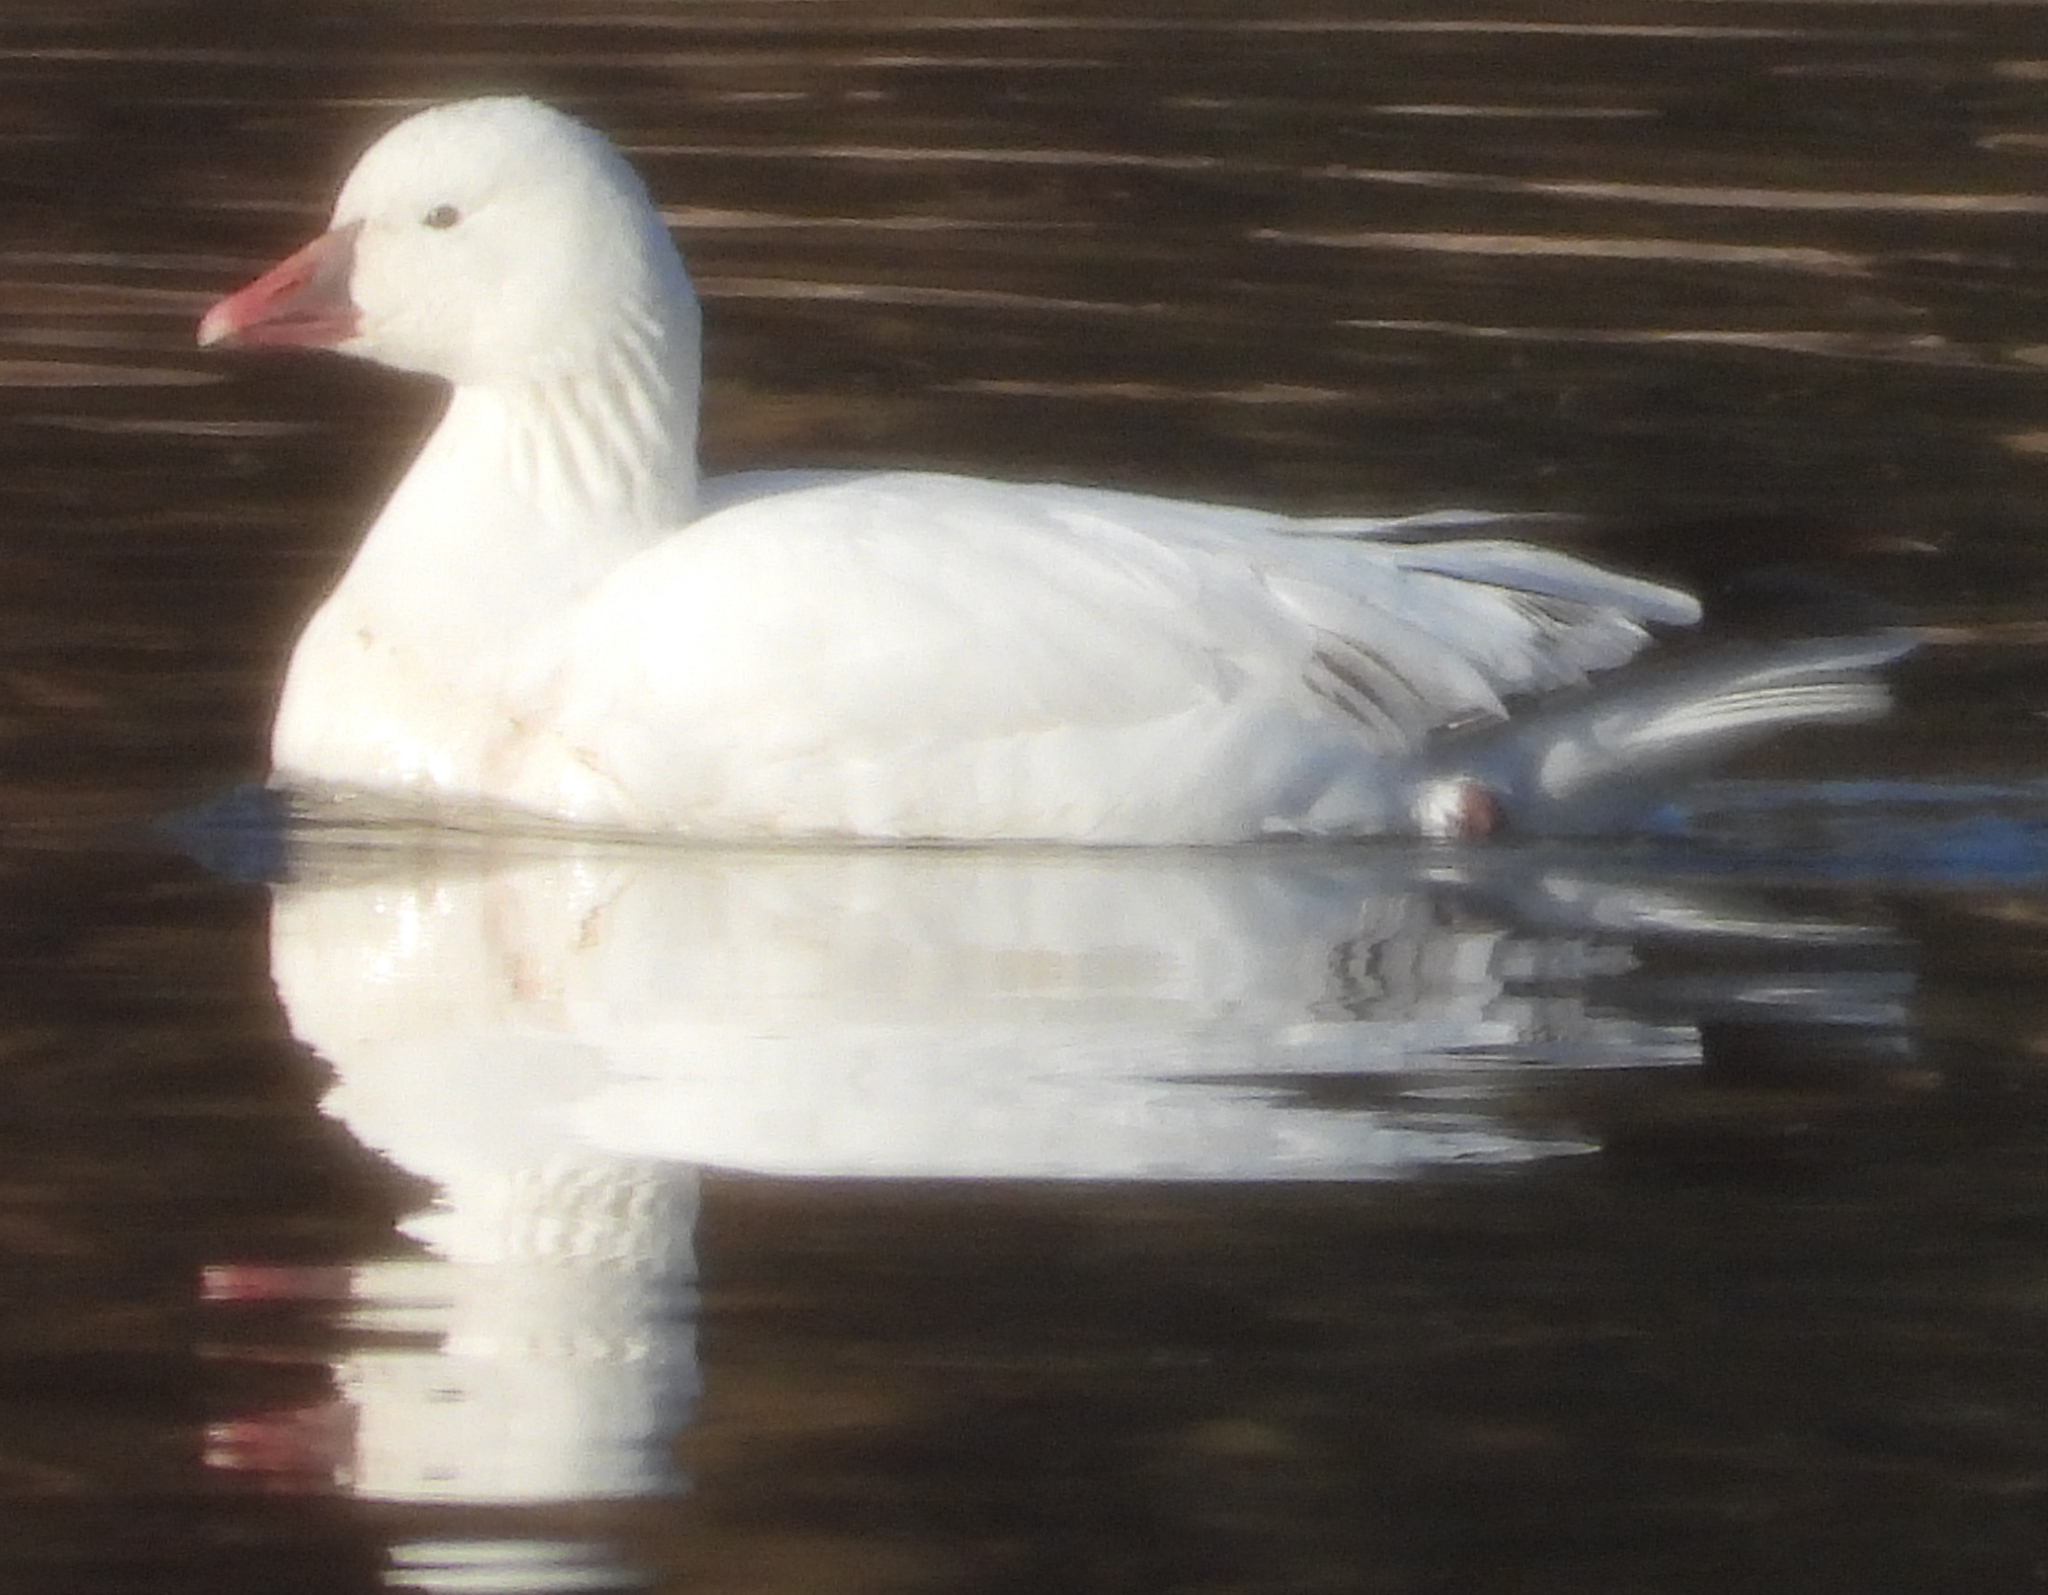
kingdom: Animalia
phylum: Chordata
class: Aves
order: Anseriformes
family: Anatidae
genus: Anser
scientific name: Anser rossii
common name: Ross's goose
